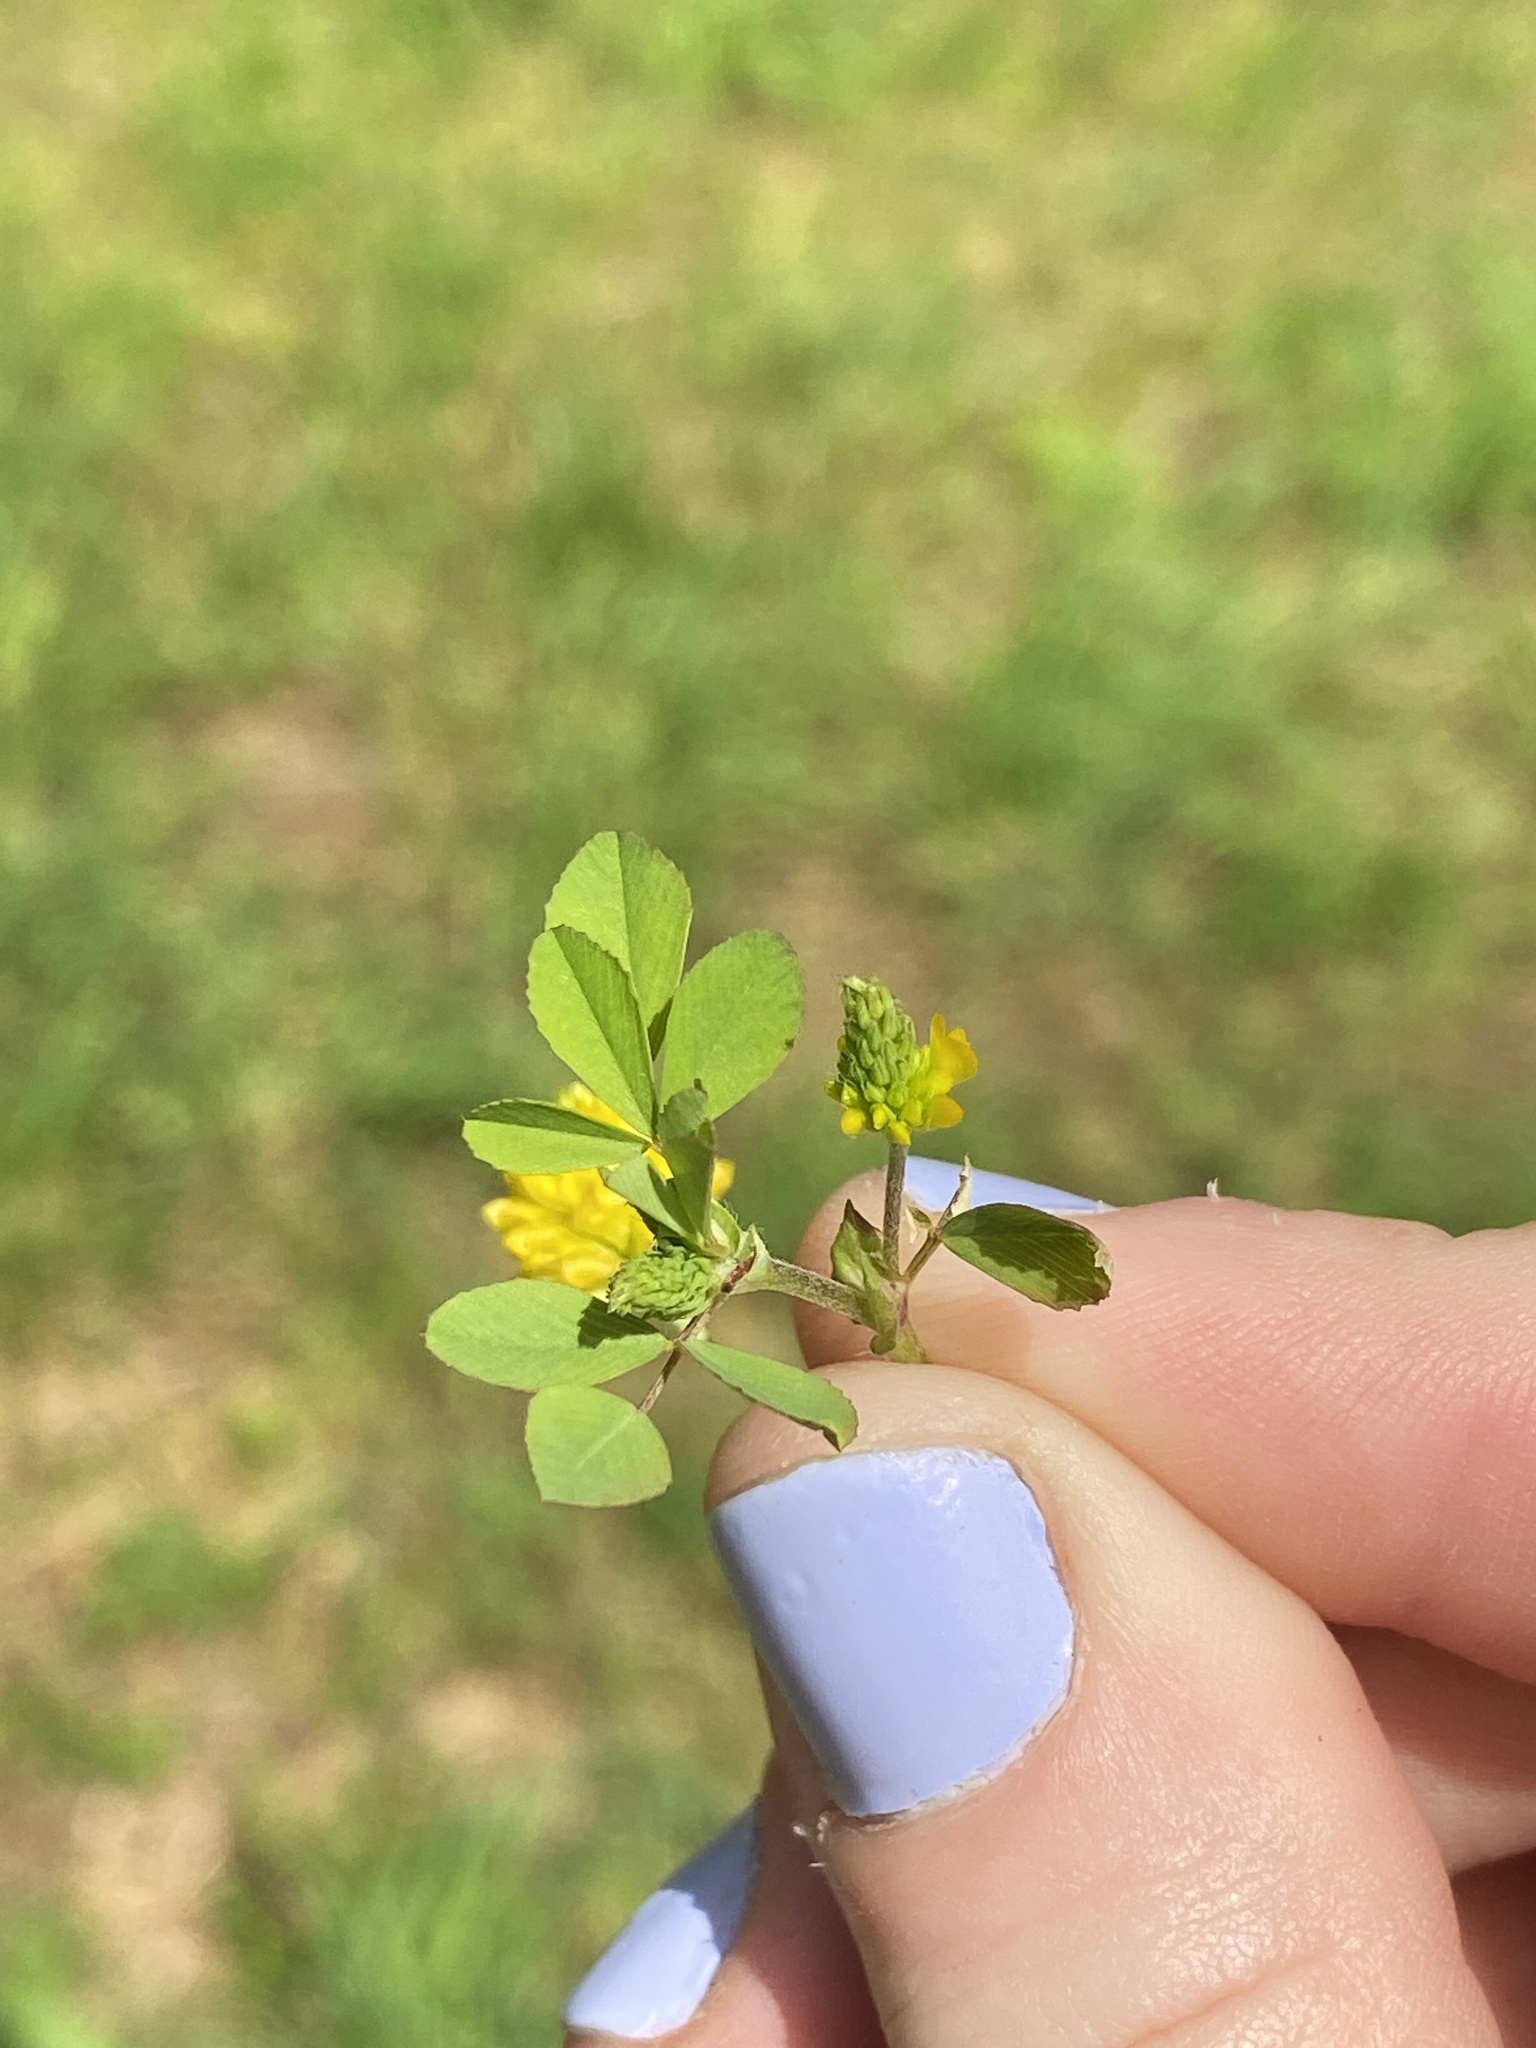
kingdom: Plantae
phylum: Tracheophyta
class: Magnoliopsida
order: Fabales
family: Fabaceae
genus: Trifolium
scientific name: Trifolium campestre
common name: Field clover
